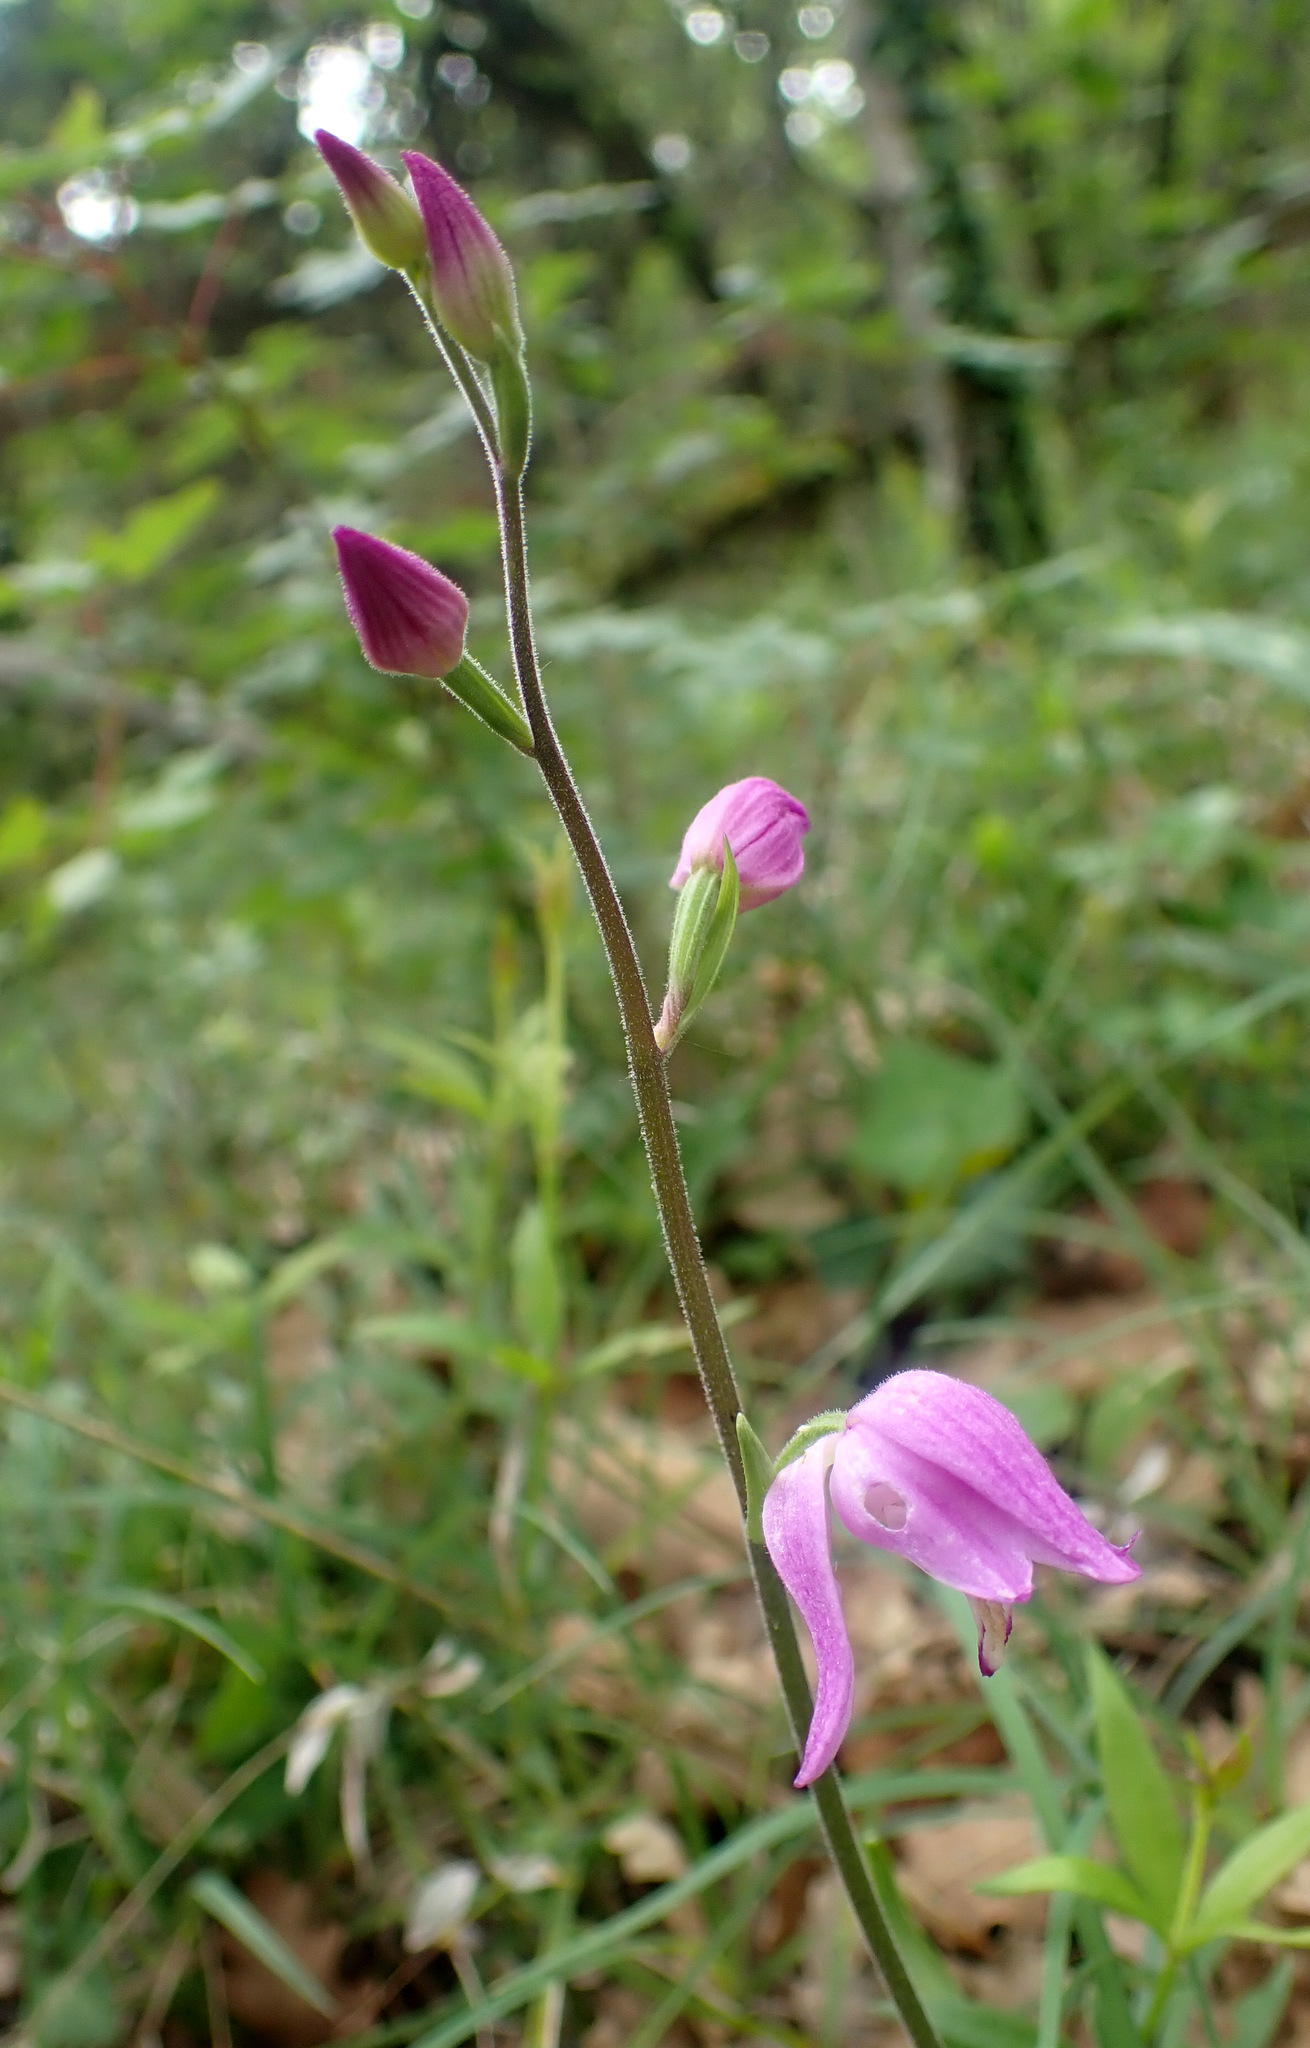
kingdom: Plantae
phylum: Tracheophyta
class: Liliopsida
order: Asparagales
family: Orchidaceae
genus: Cephalanthera
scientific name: Cephalanthera rubra
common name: Red helleborine
